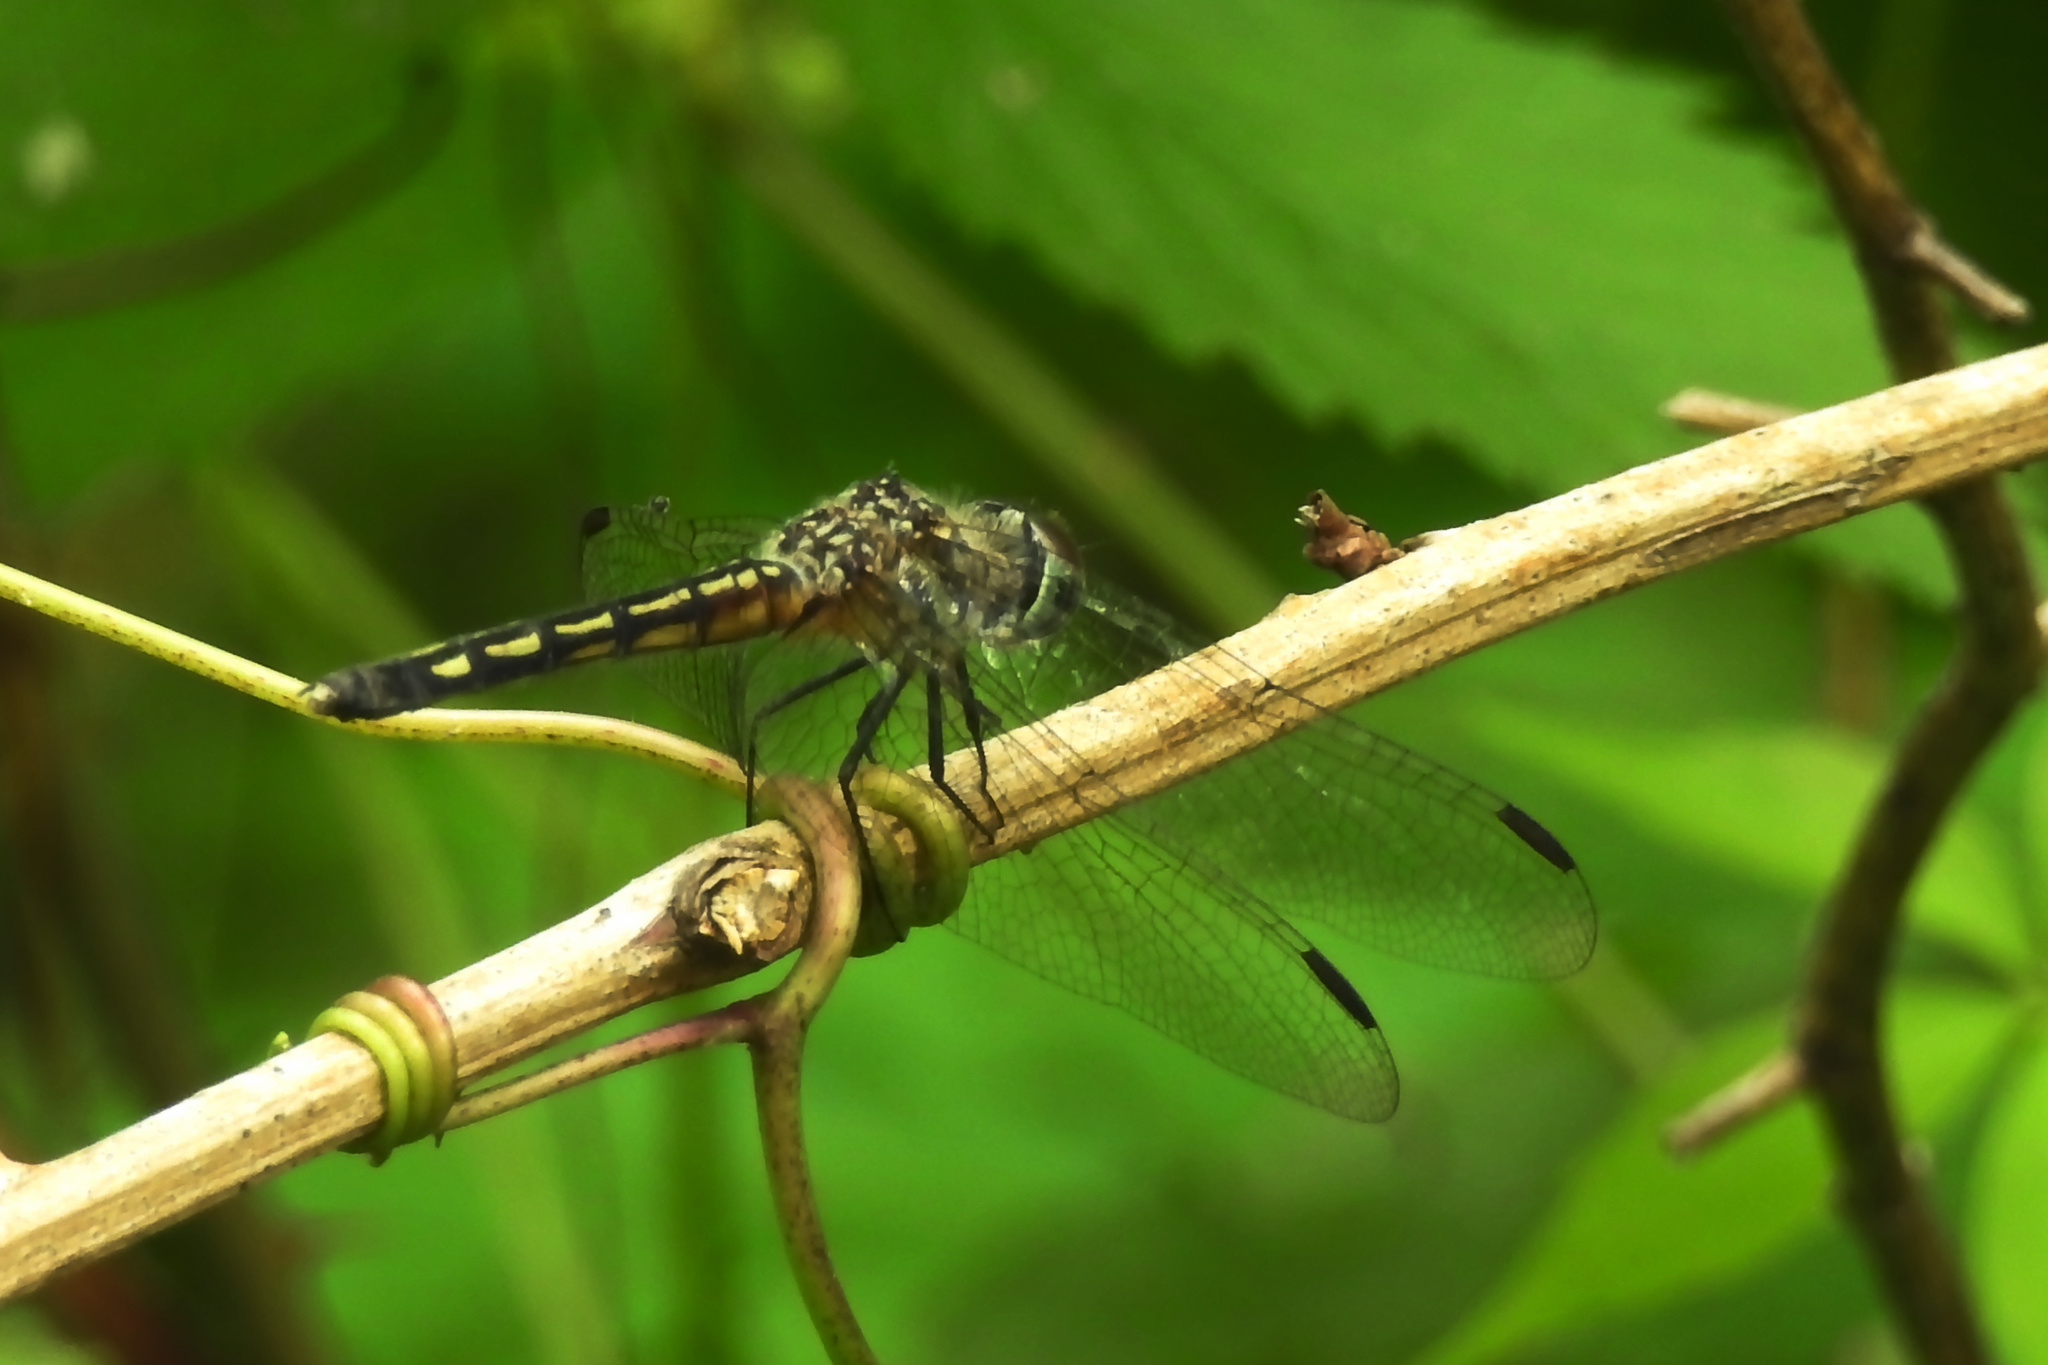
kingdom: Animalia
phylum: Arthropoda
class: Insecta
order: Odonata
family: Libellulidae
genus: Pachydiplax
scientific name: Pachydiplax longipennis
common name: Blue dasher
